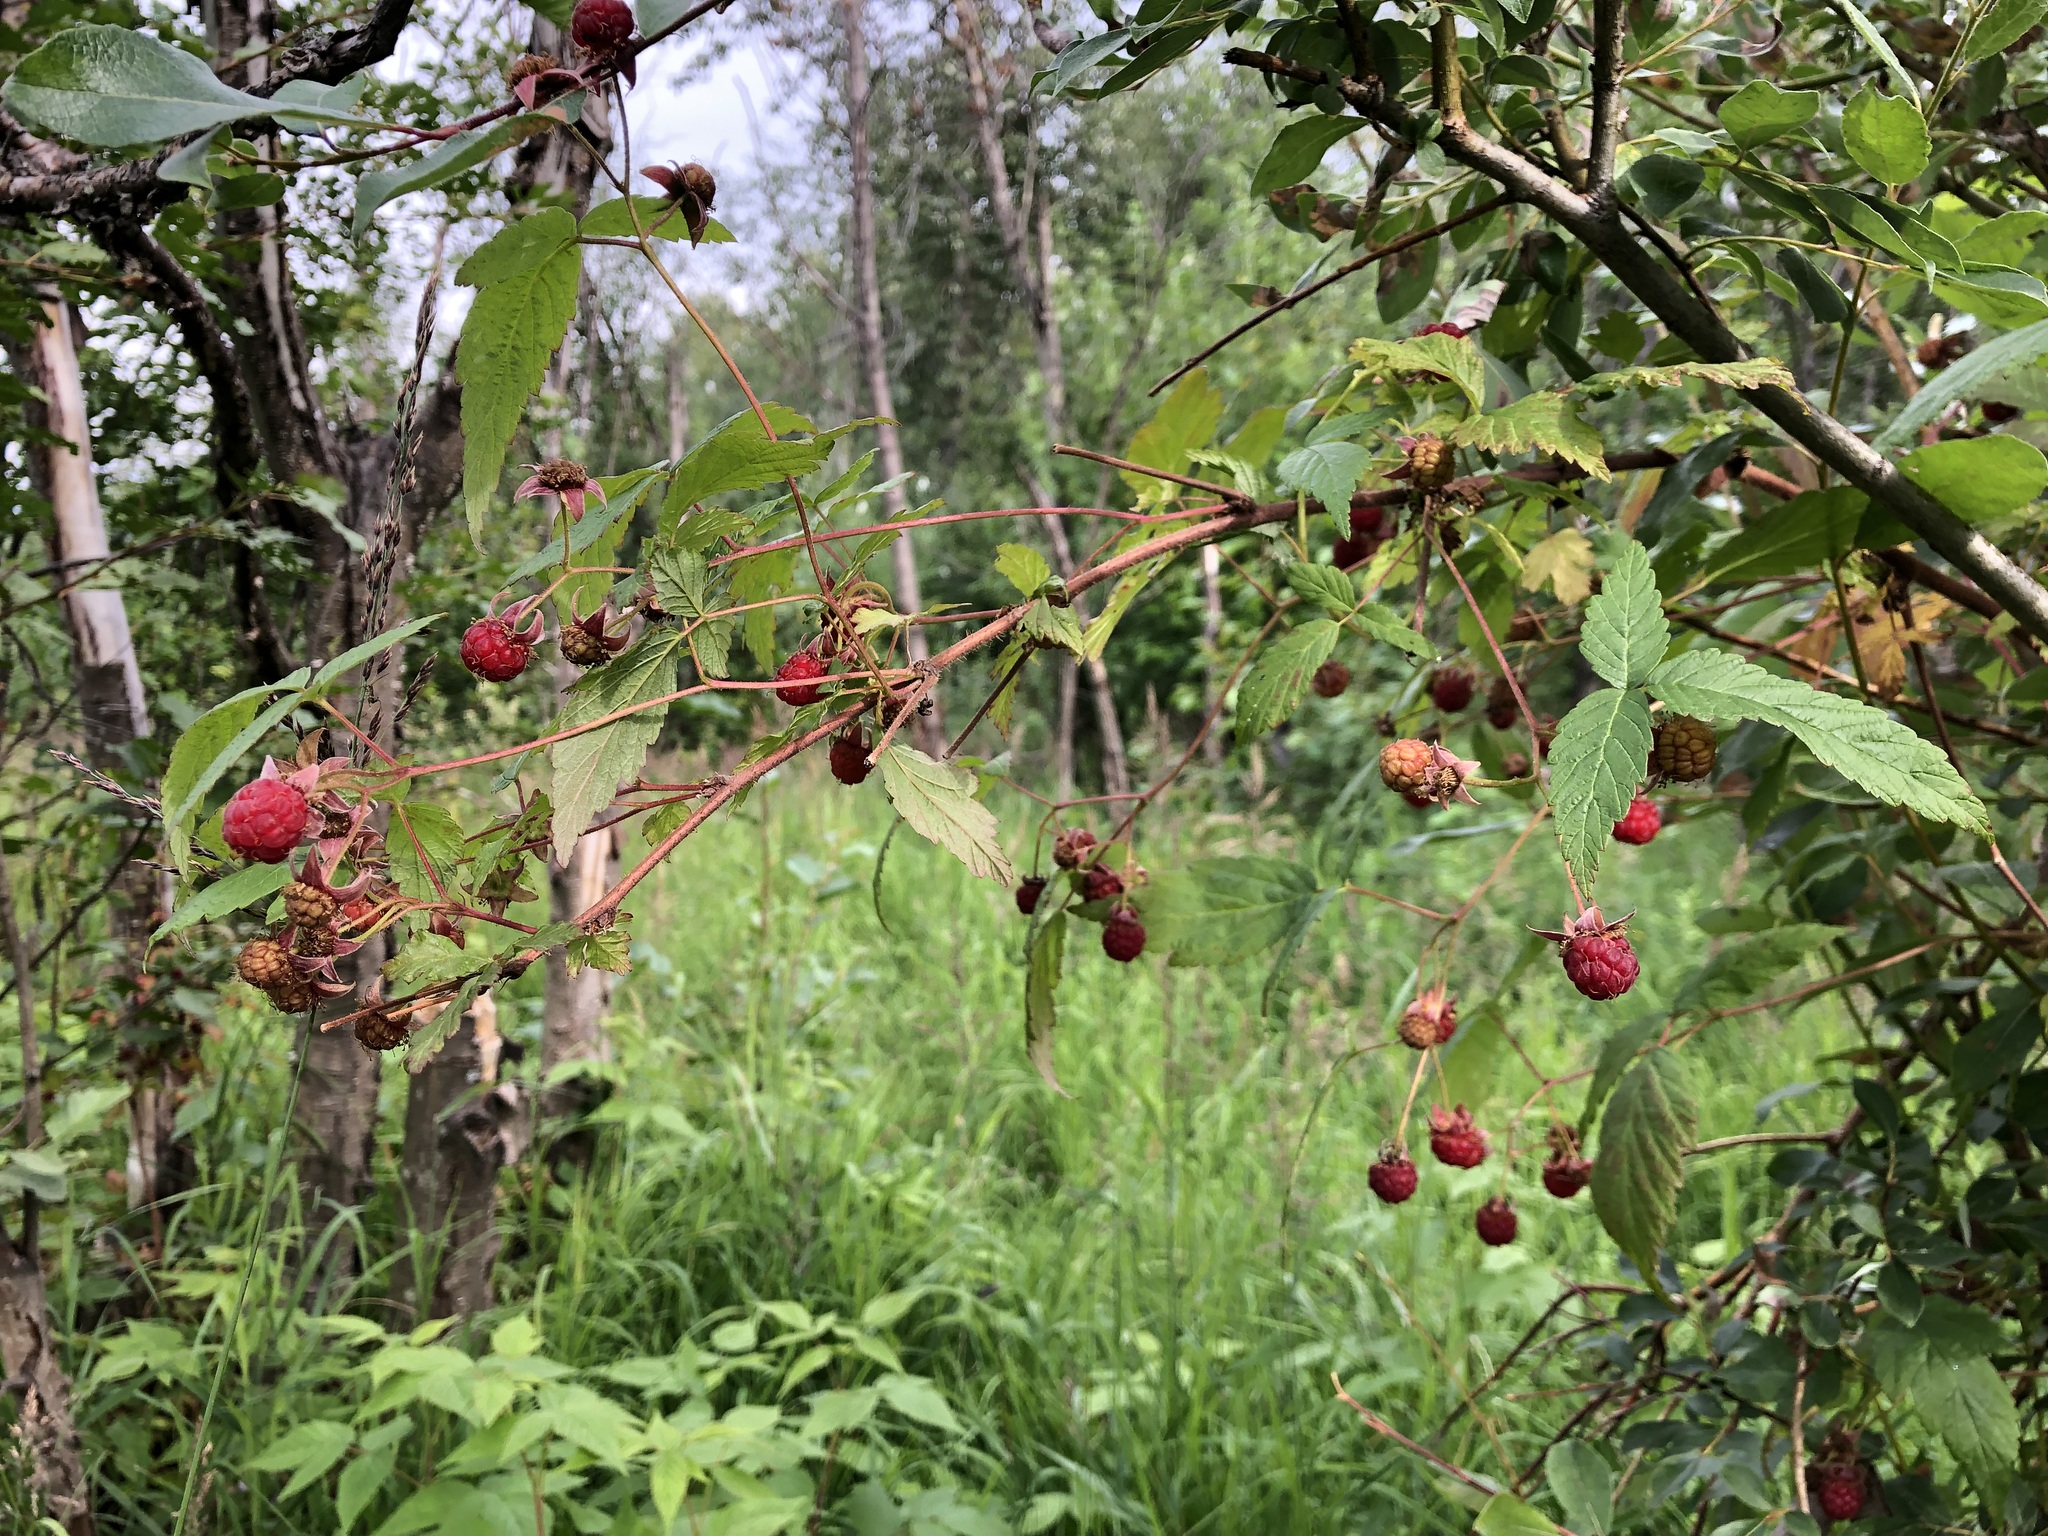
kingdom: Plantae
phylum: Tracheophyta
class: Magnoliopsida
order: Rosales
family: Rosaceae
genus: Rubus
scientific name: Rubus idaeus
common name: Raspberry
